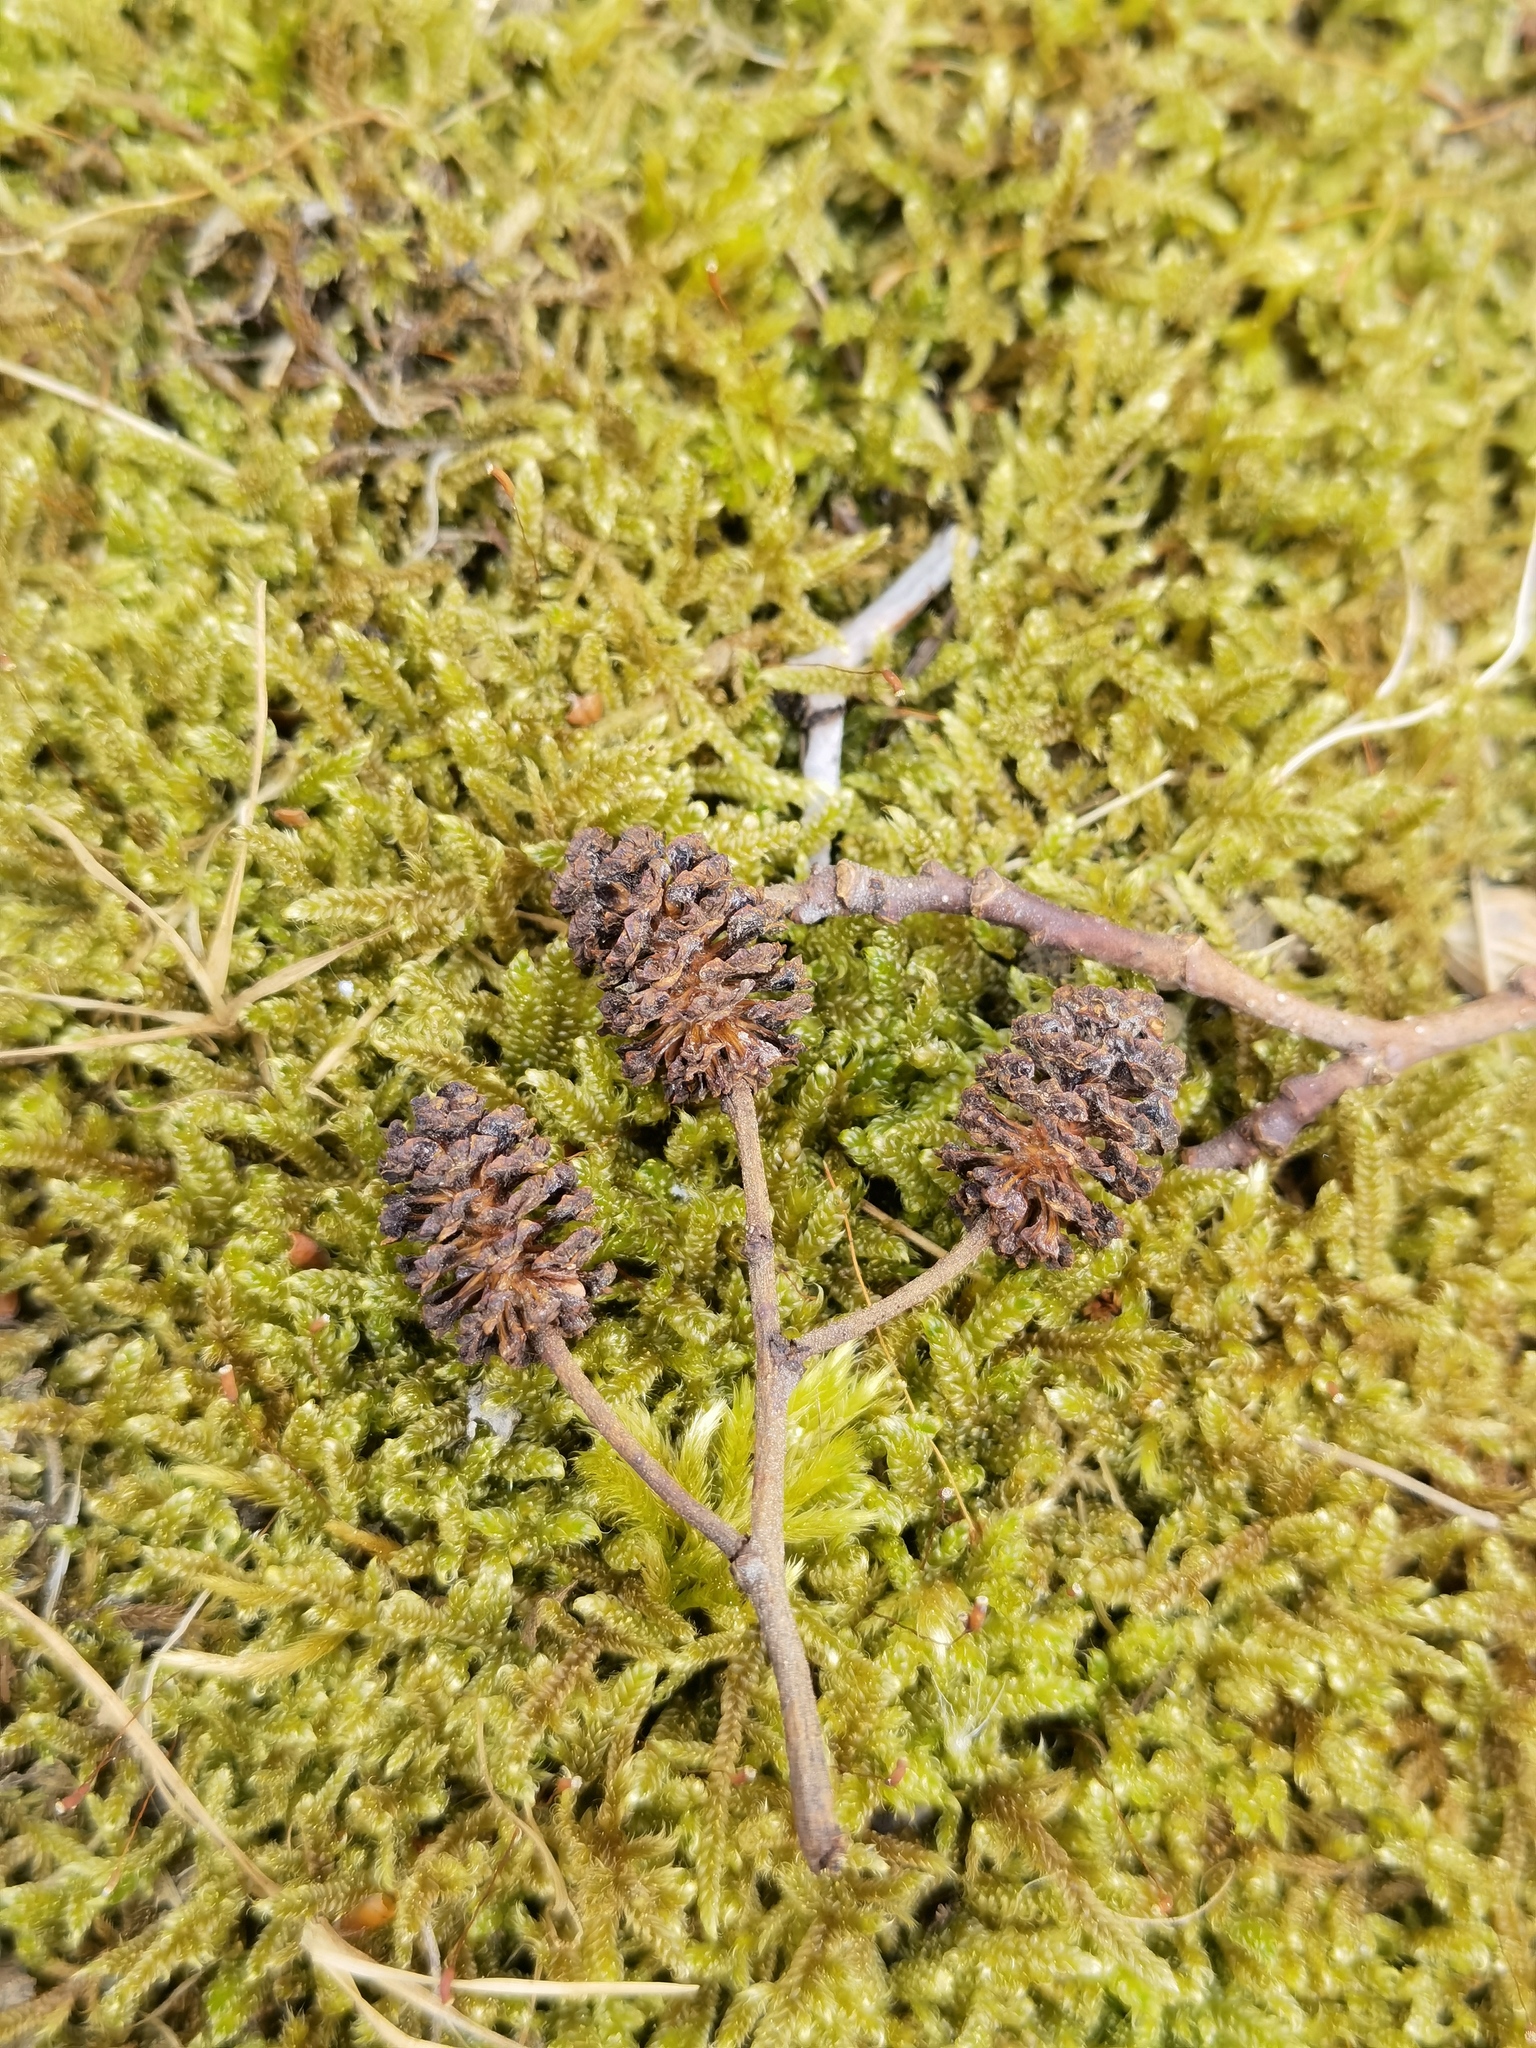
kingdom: Plantae
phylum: Tracheophyta
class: Magnoliopsida
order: Fagales
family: Betulaceae
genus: Alnus
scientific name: Alnus glutinosa
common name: Black alder
